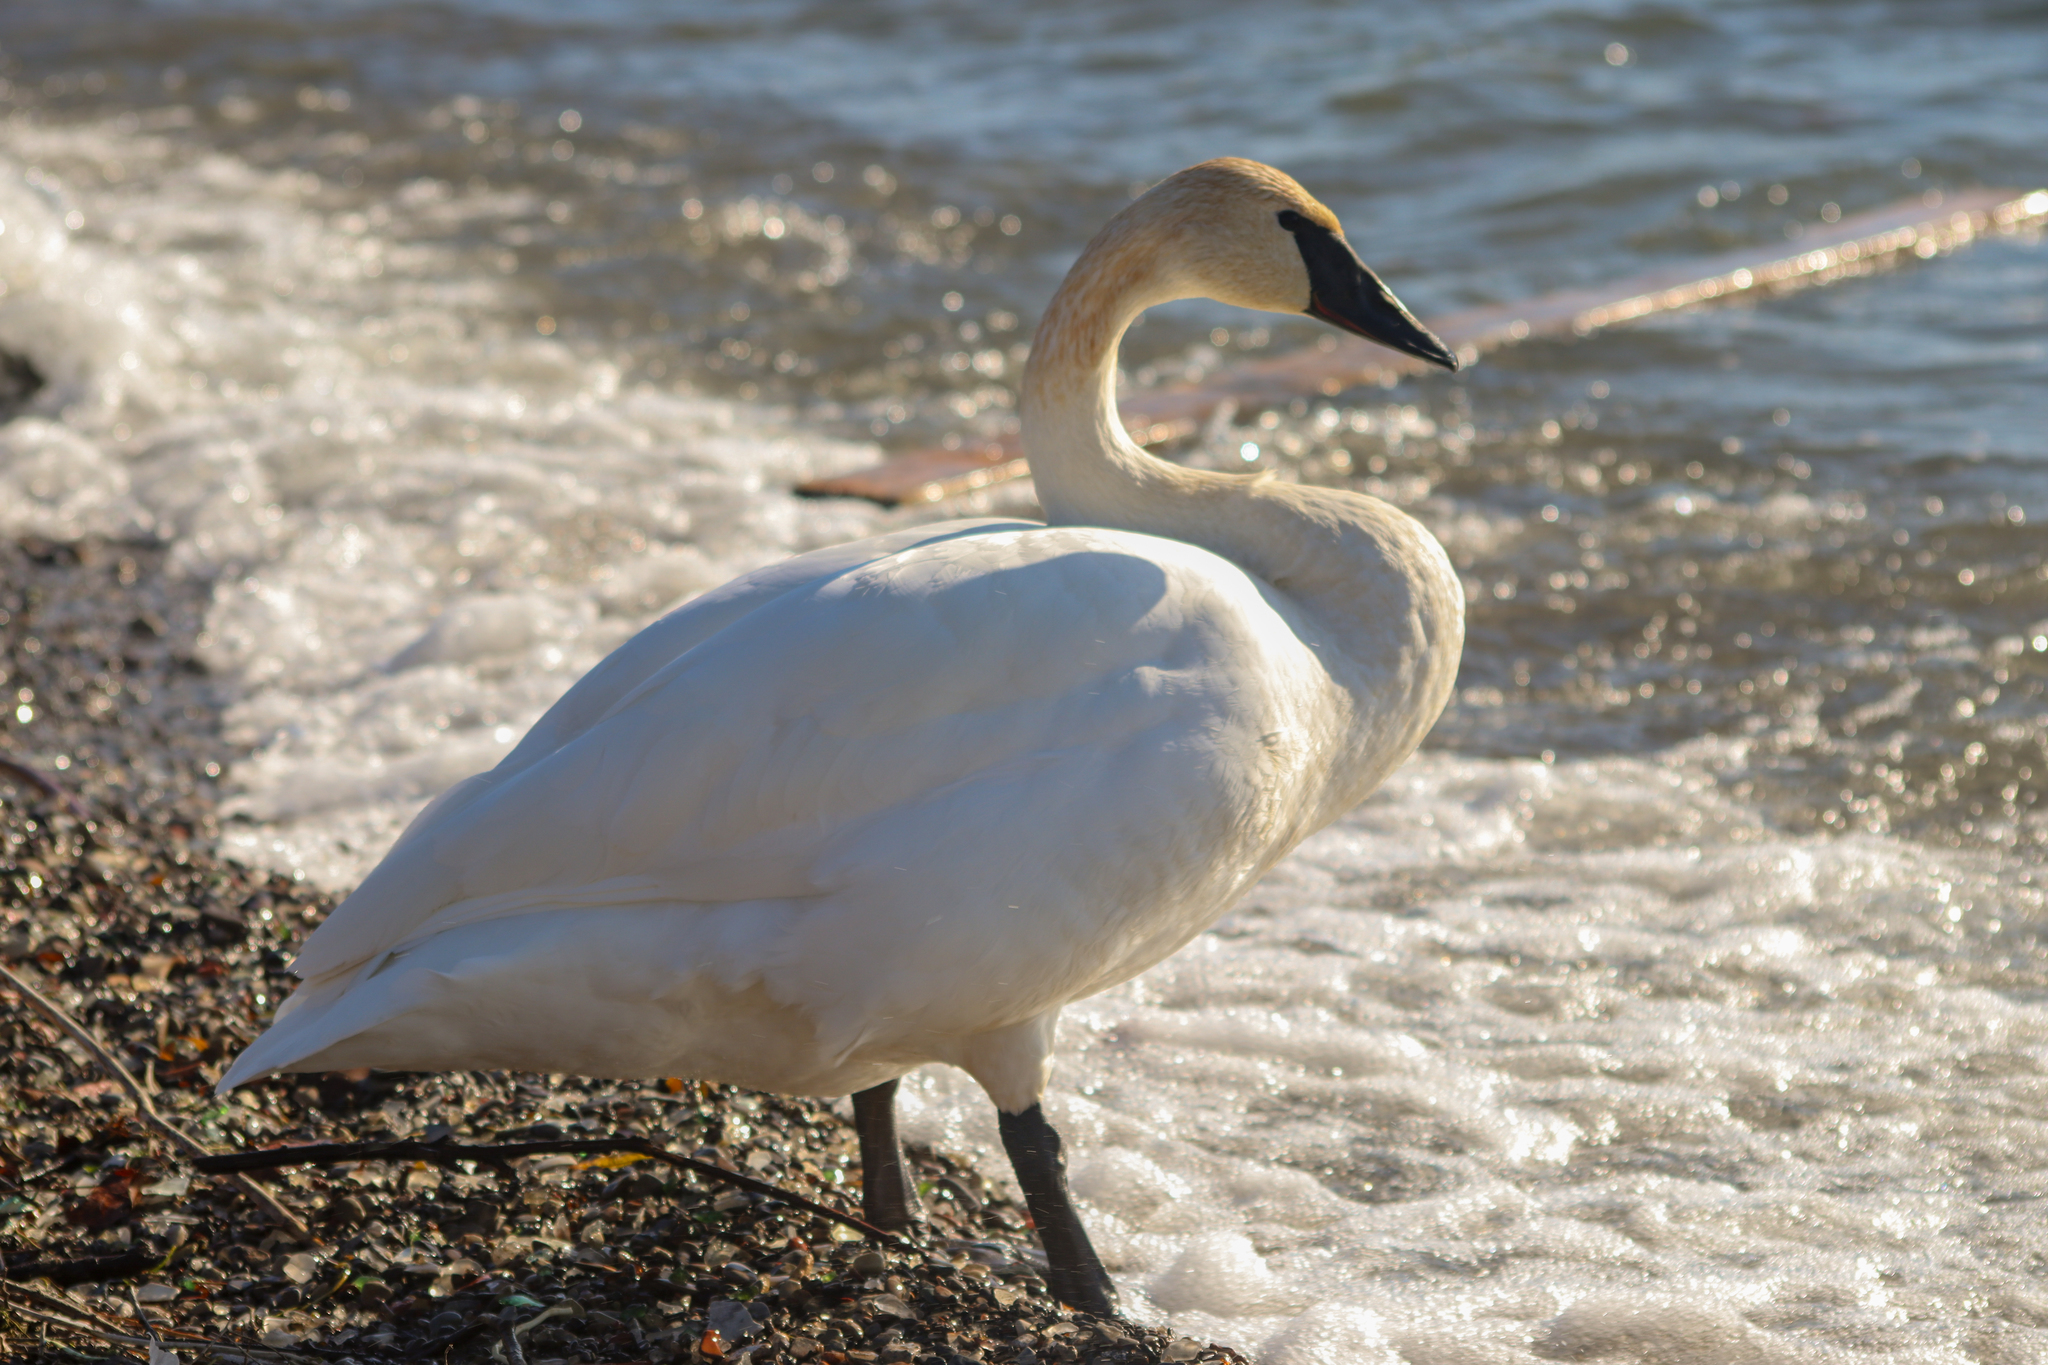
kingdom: Animalia
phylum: Chordata
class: Aves
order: Anseriformes
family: Anatidae
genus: Cygnus
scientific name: Cygnus buccinator
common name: Trumpeter swan
